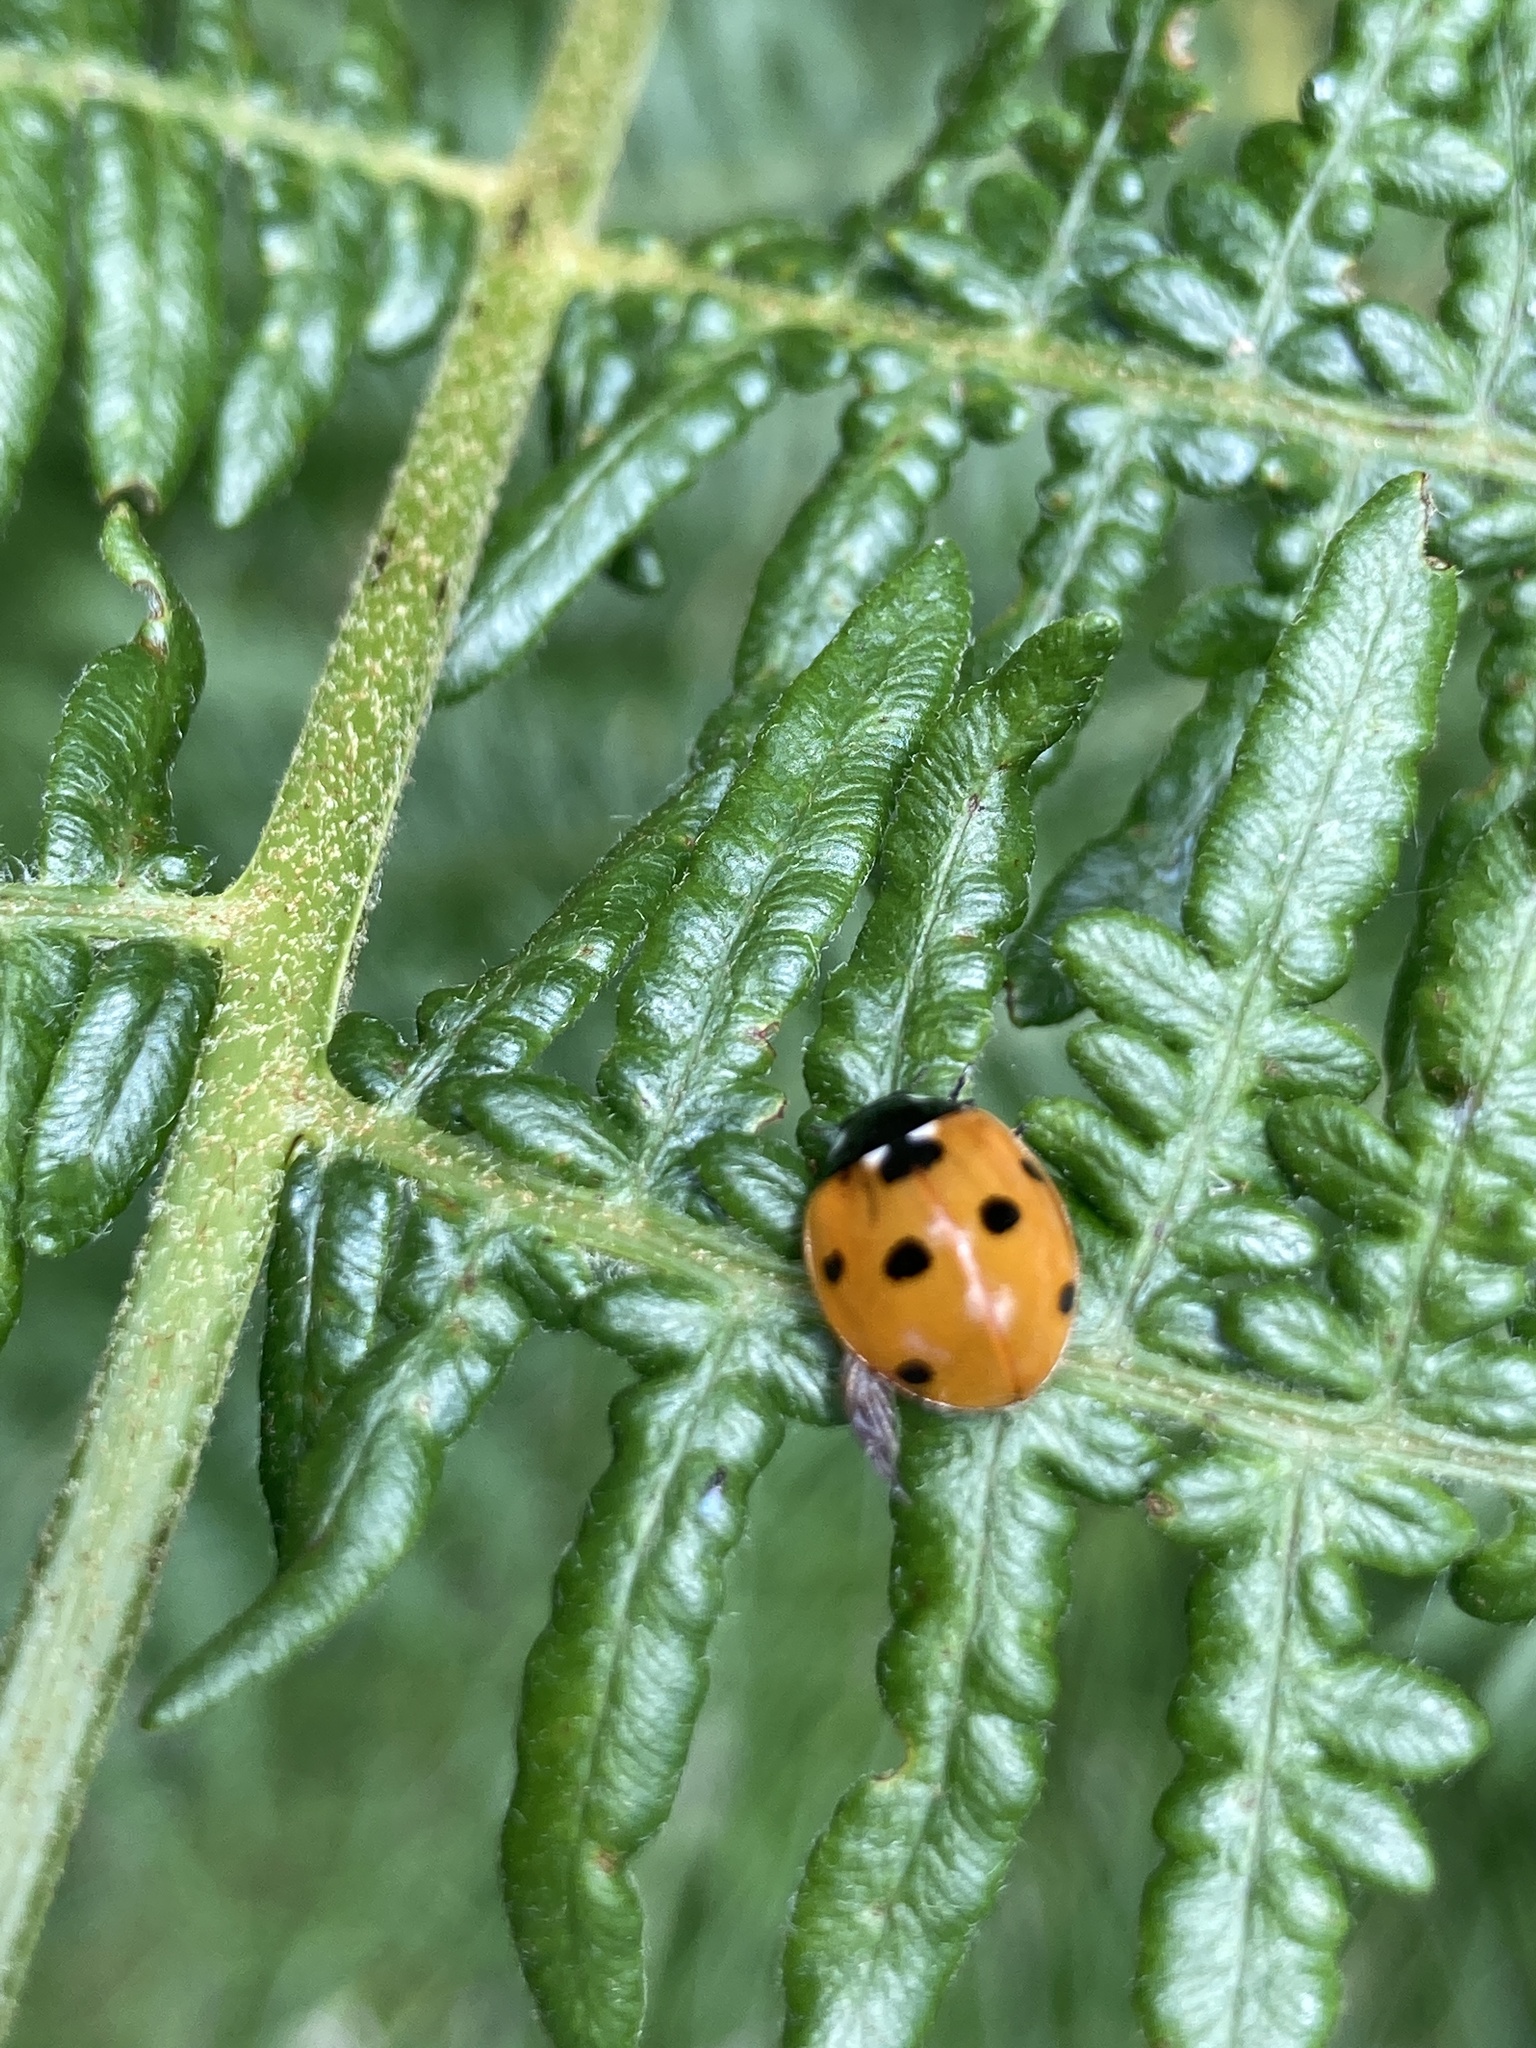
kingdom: Animalia
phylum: Arthropoda
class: Insecta
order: Coleoptera
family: Coccinellidae
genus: Coccinella
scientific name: Coccinella septempunctata
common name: Sevenspotted lady beetle
